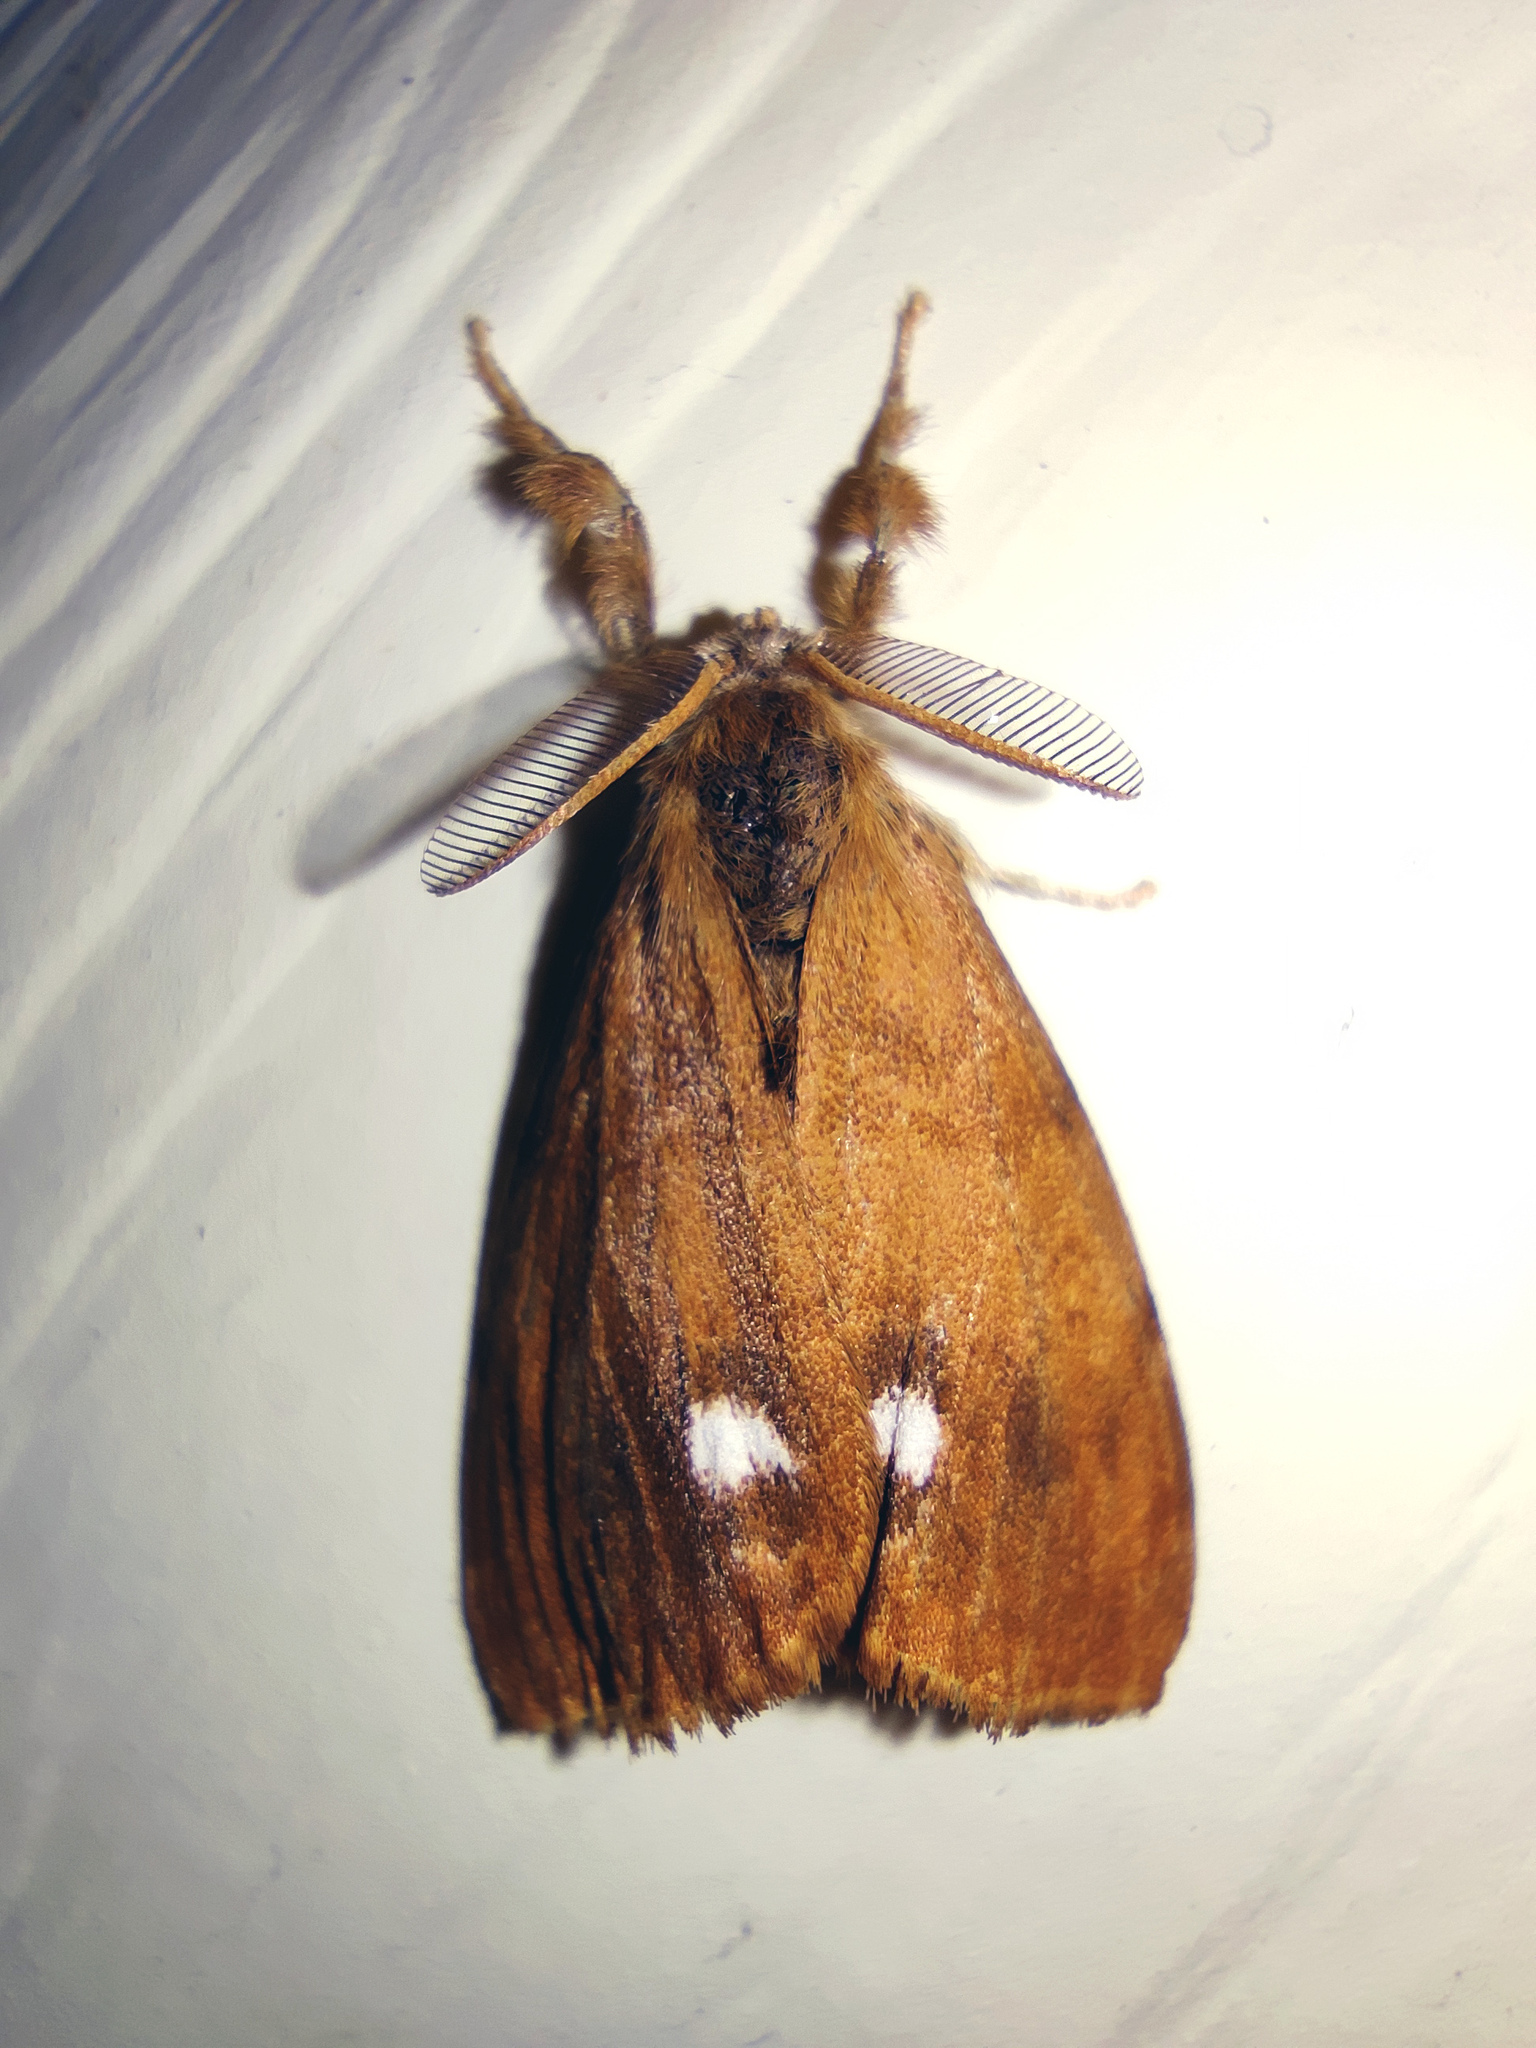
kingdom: Animalia
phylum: Arthropoda
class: Insecta
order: Lepidoptera
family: Erebidae
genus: Orgyia
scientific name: Orgyia antiqua
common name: Vapourer
